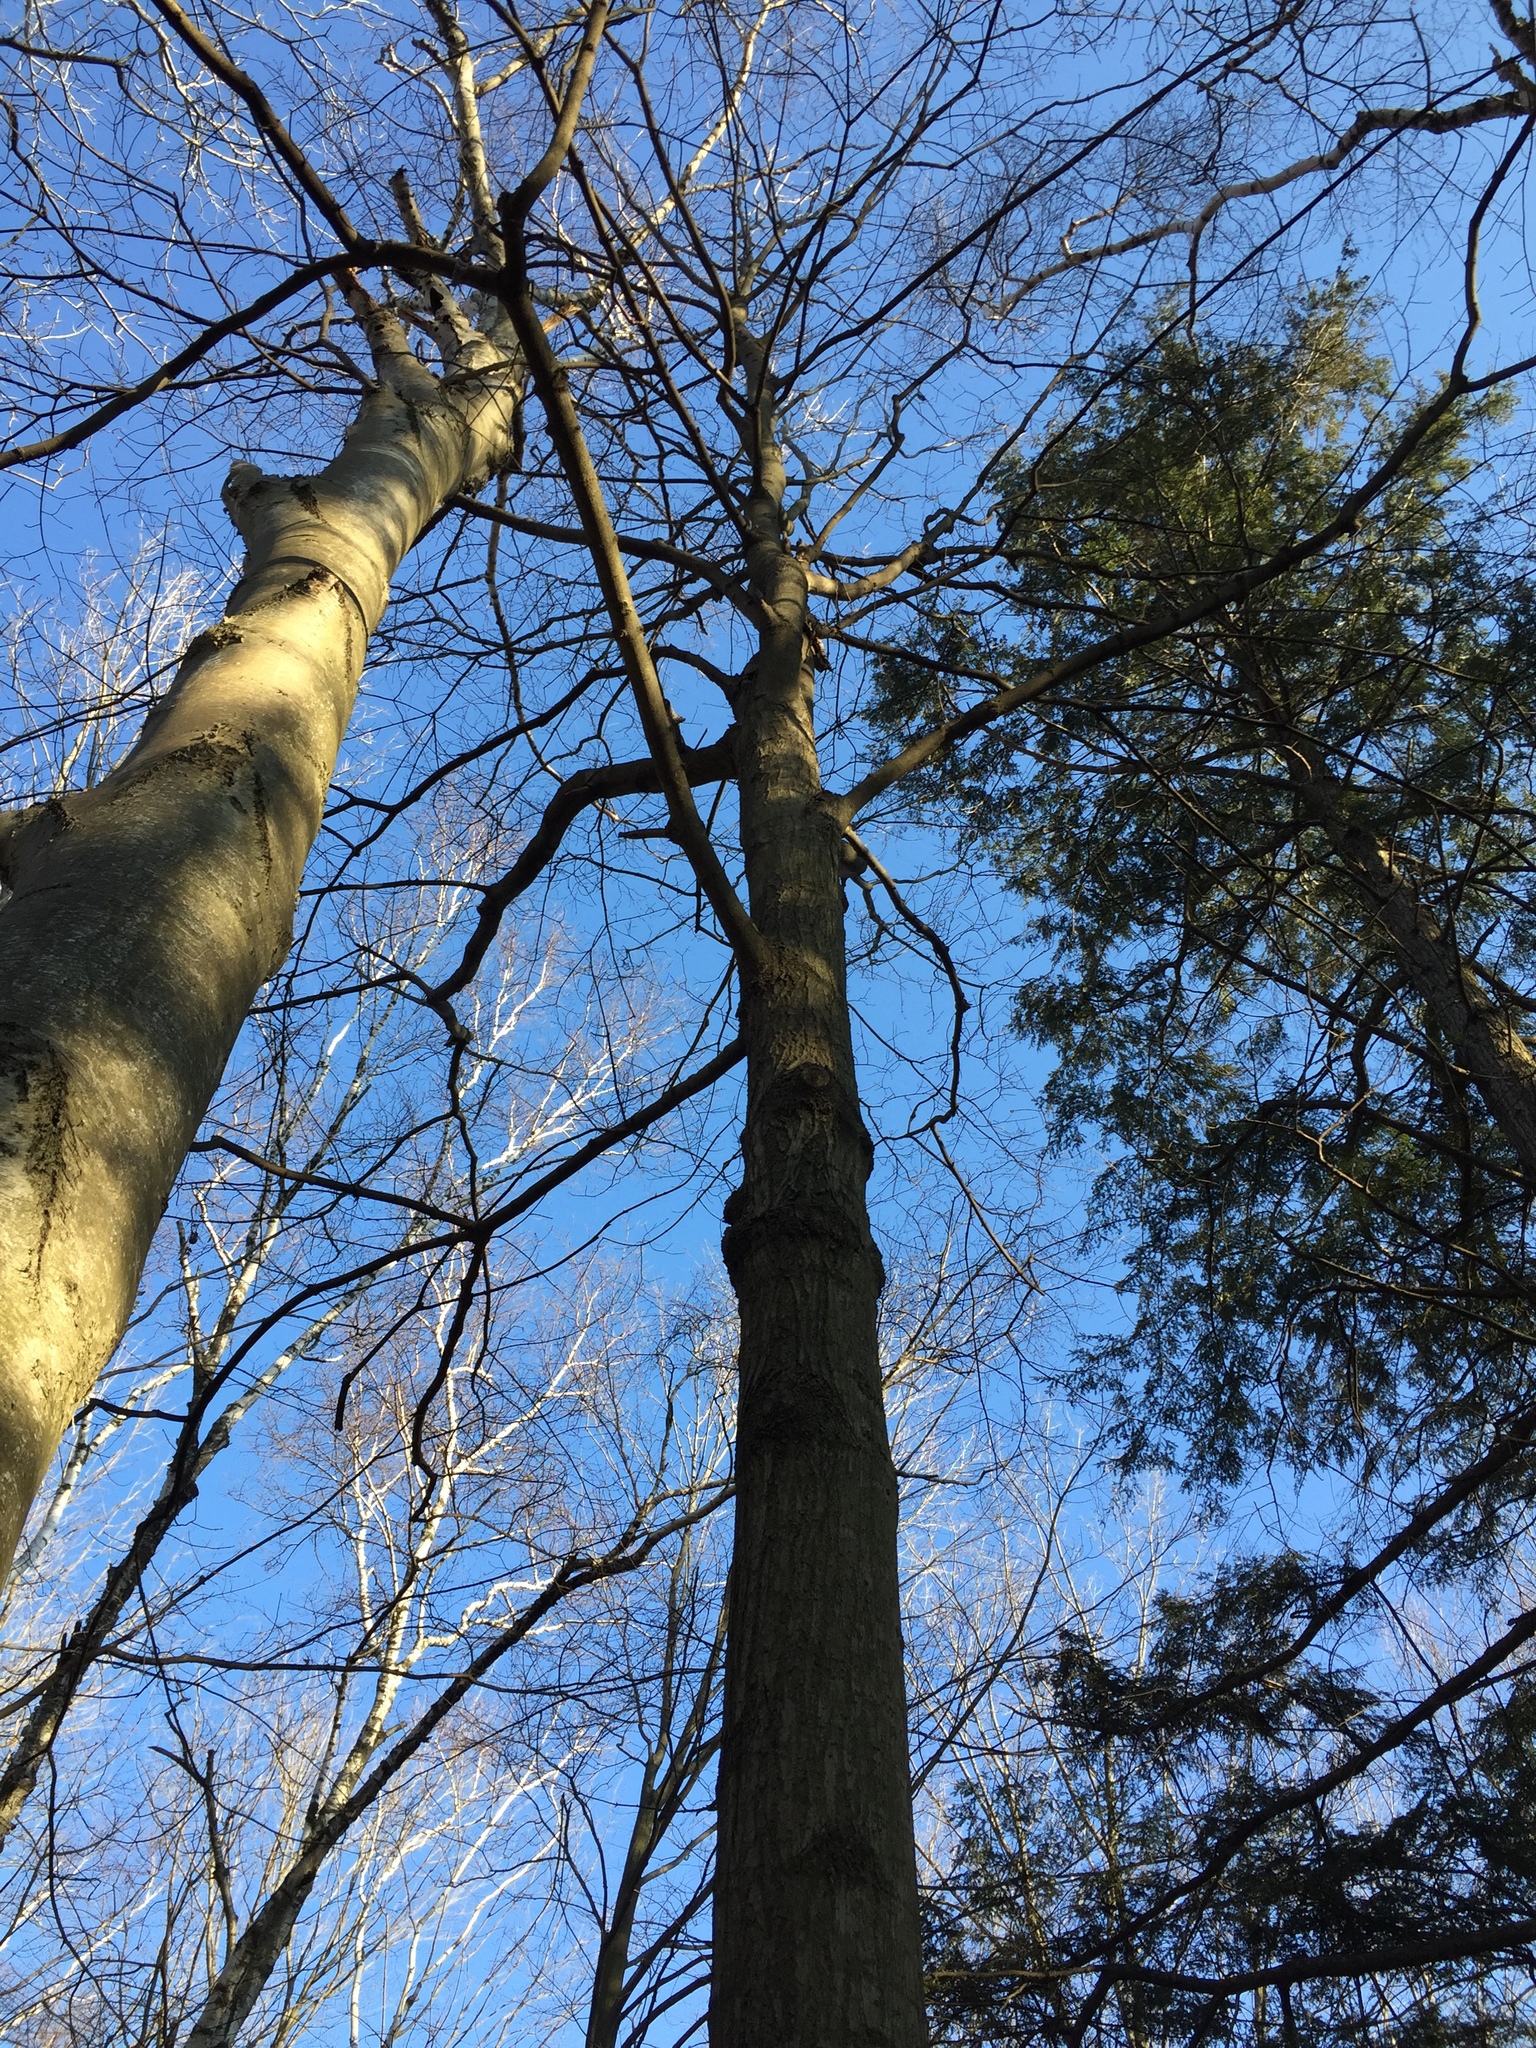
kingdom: Plantae
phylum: Tracheophyta
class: Magnoliopsida
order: Sapindales
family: Sapindaceae
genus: Acer
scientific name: Acer saccharum
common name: Sugar maple
